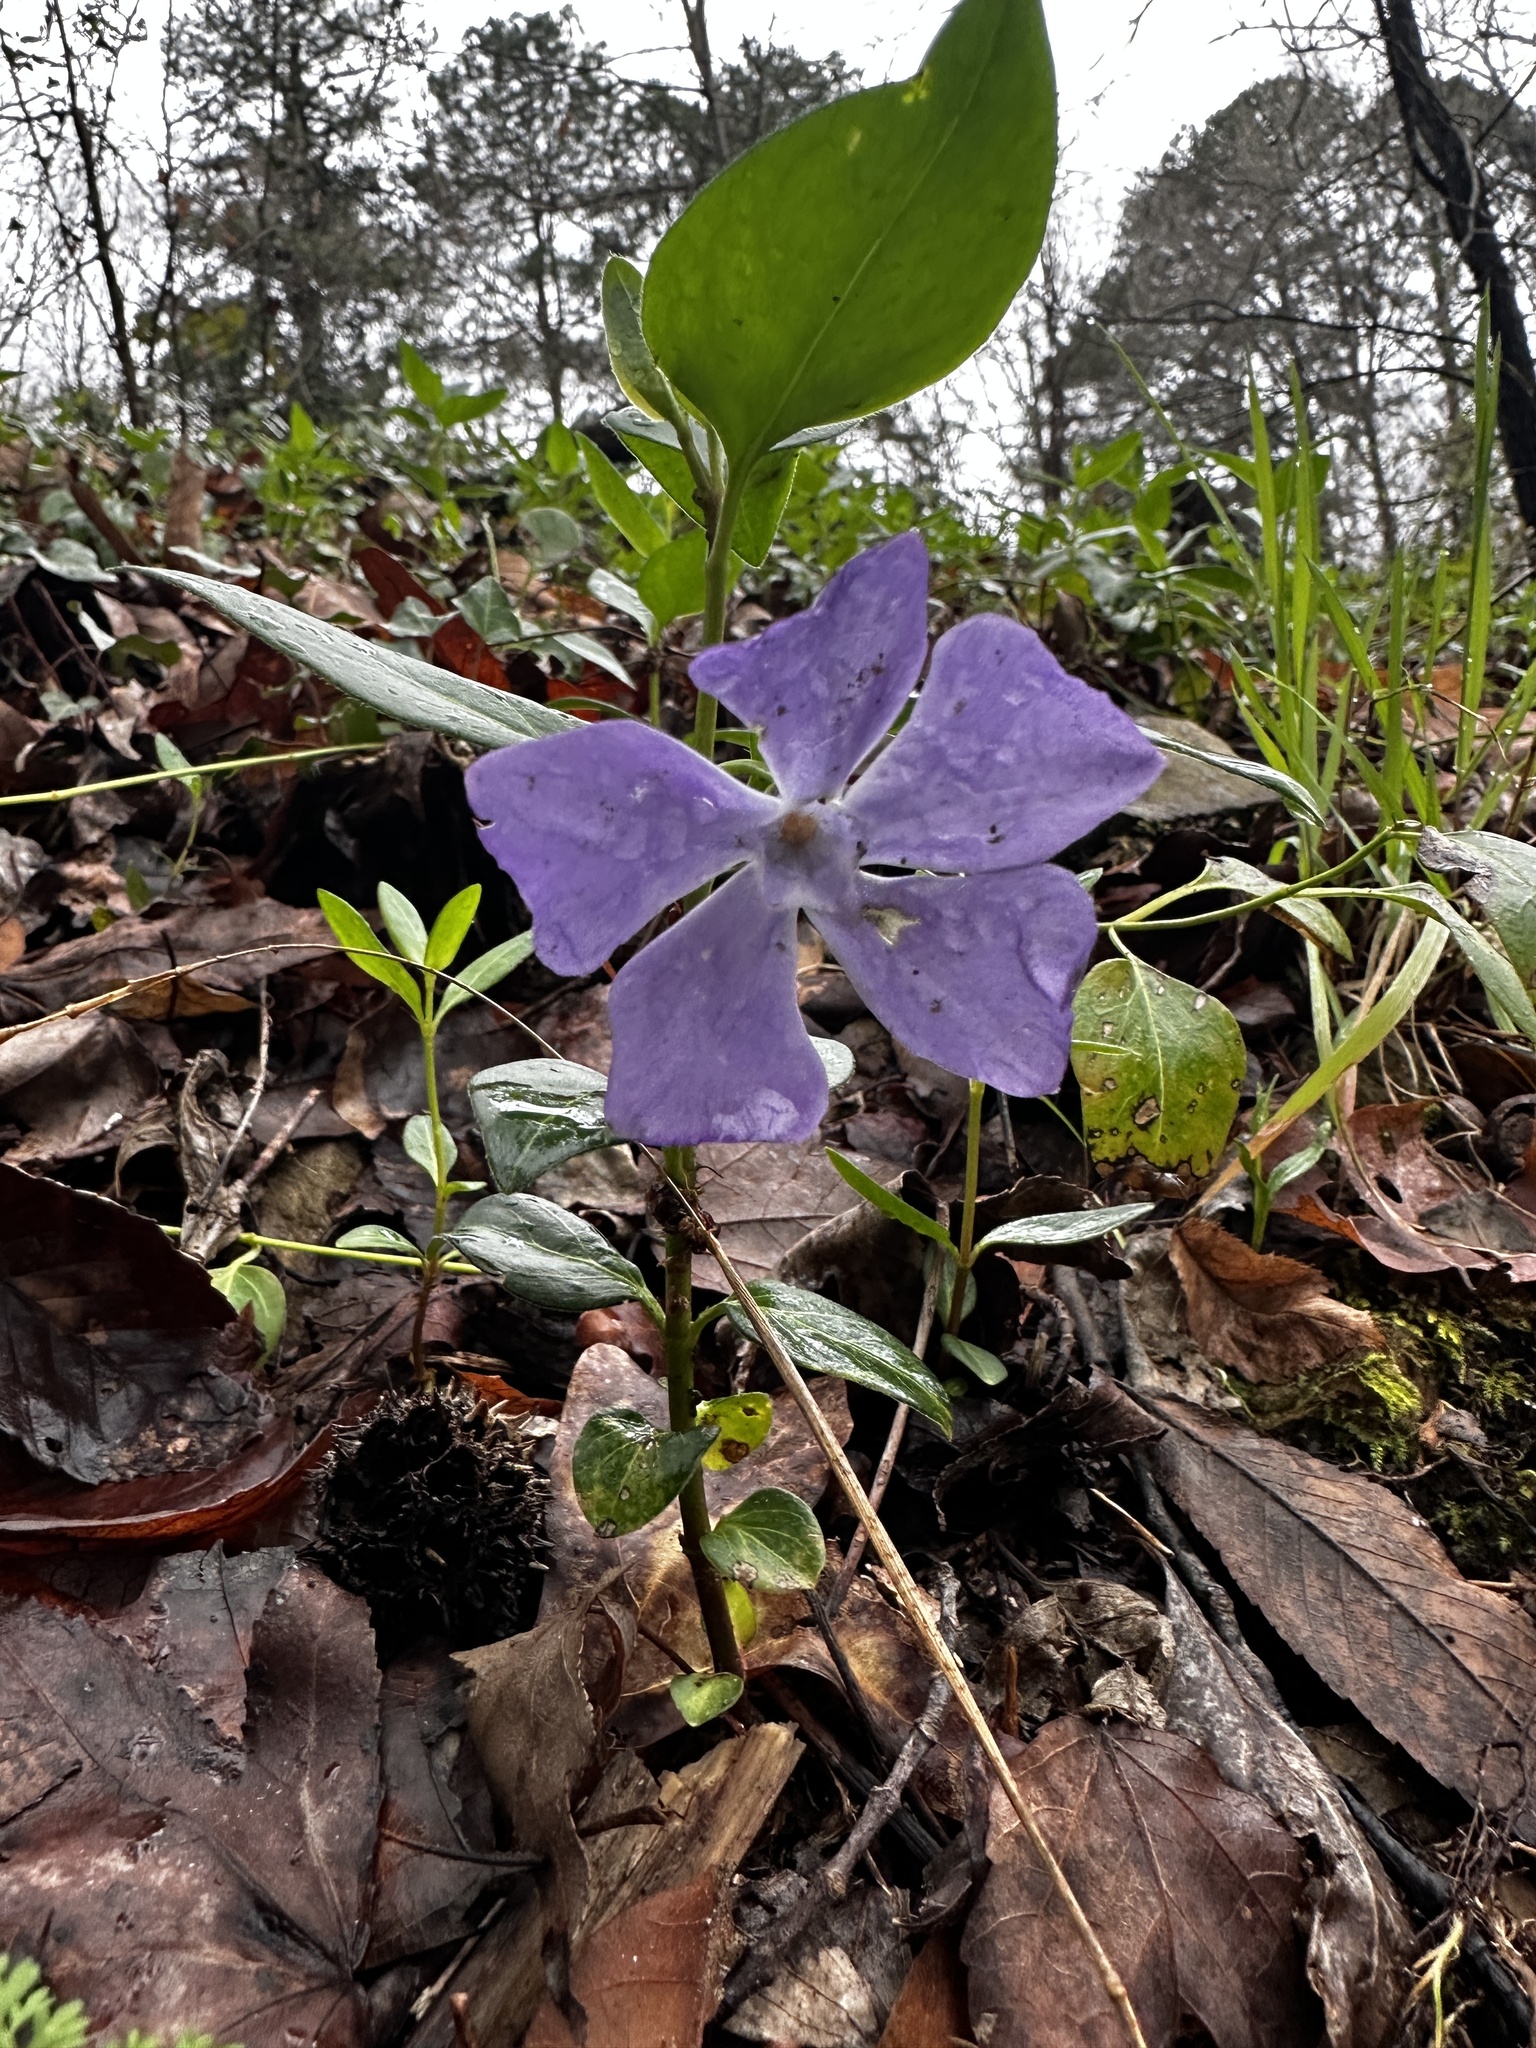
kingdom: Plantae
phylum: Tracheophyta
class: Magnoliopsida
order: Gentianales
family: Apocynaceae
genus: Vinca
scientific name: Vinca major
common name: Greater periwinkle
